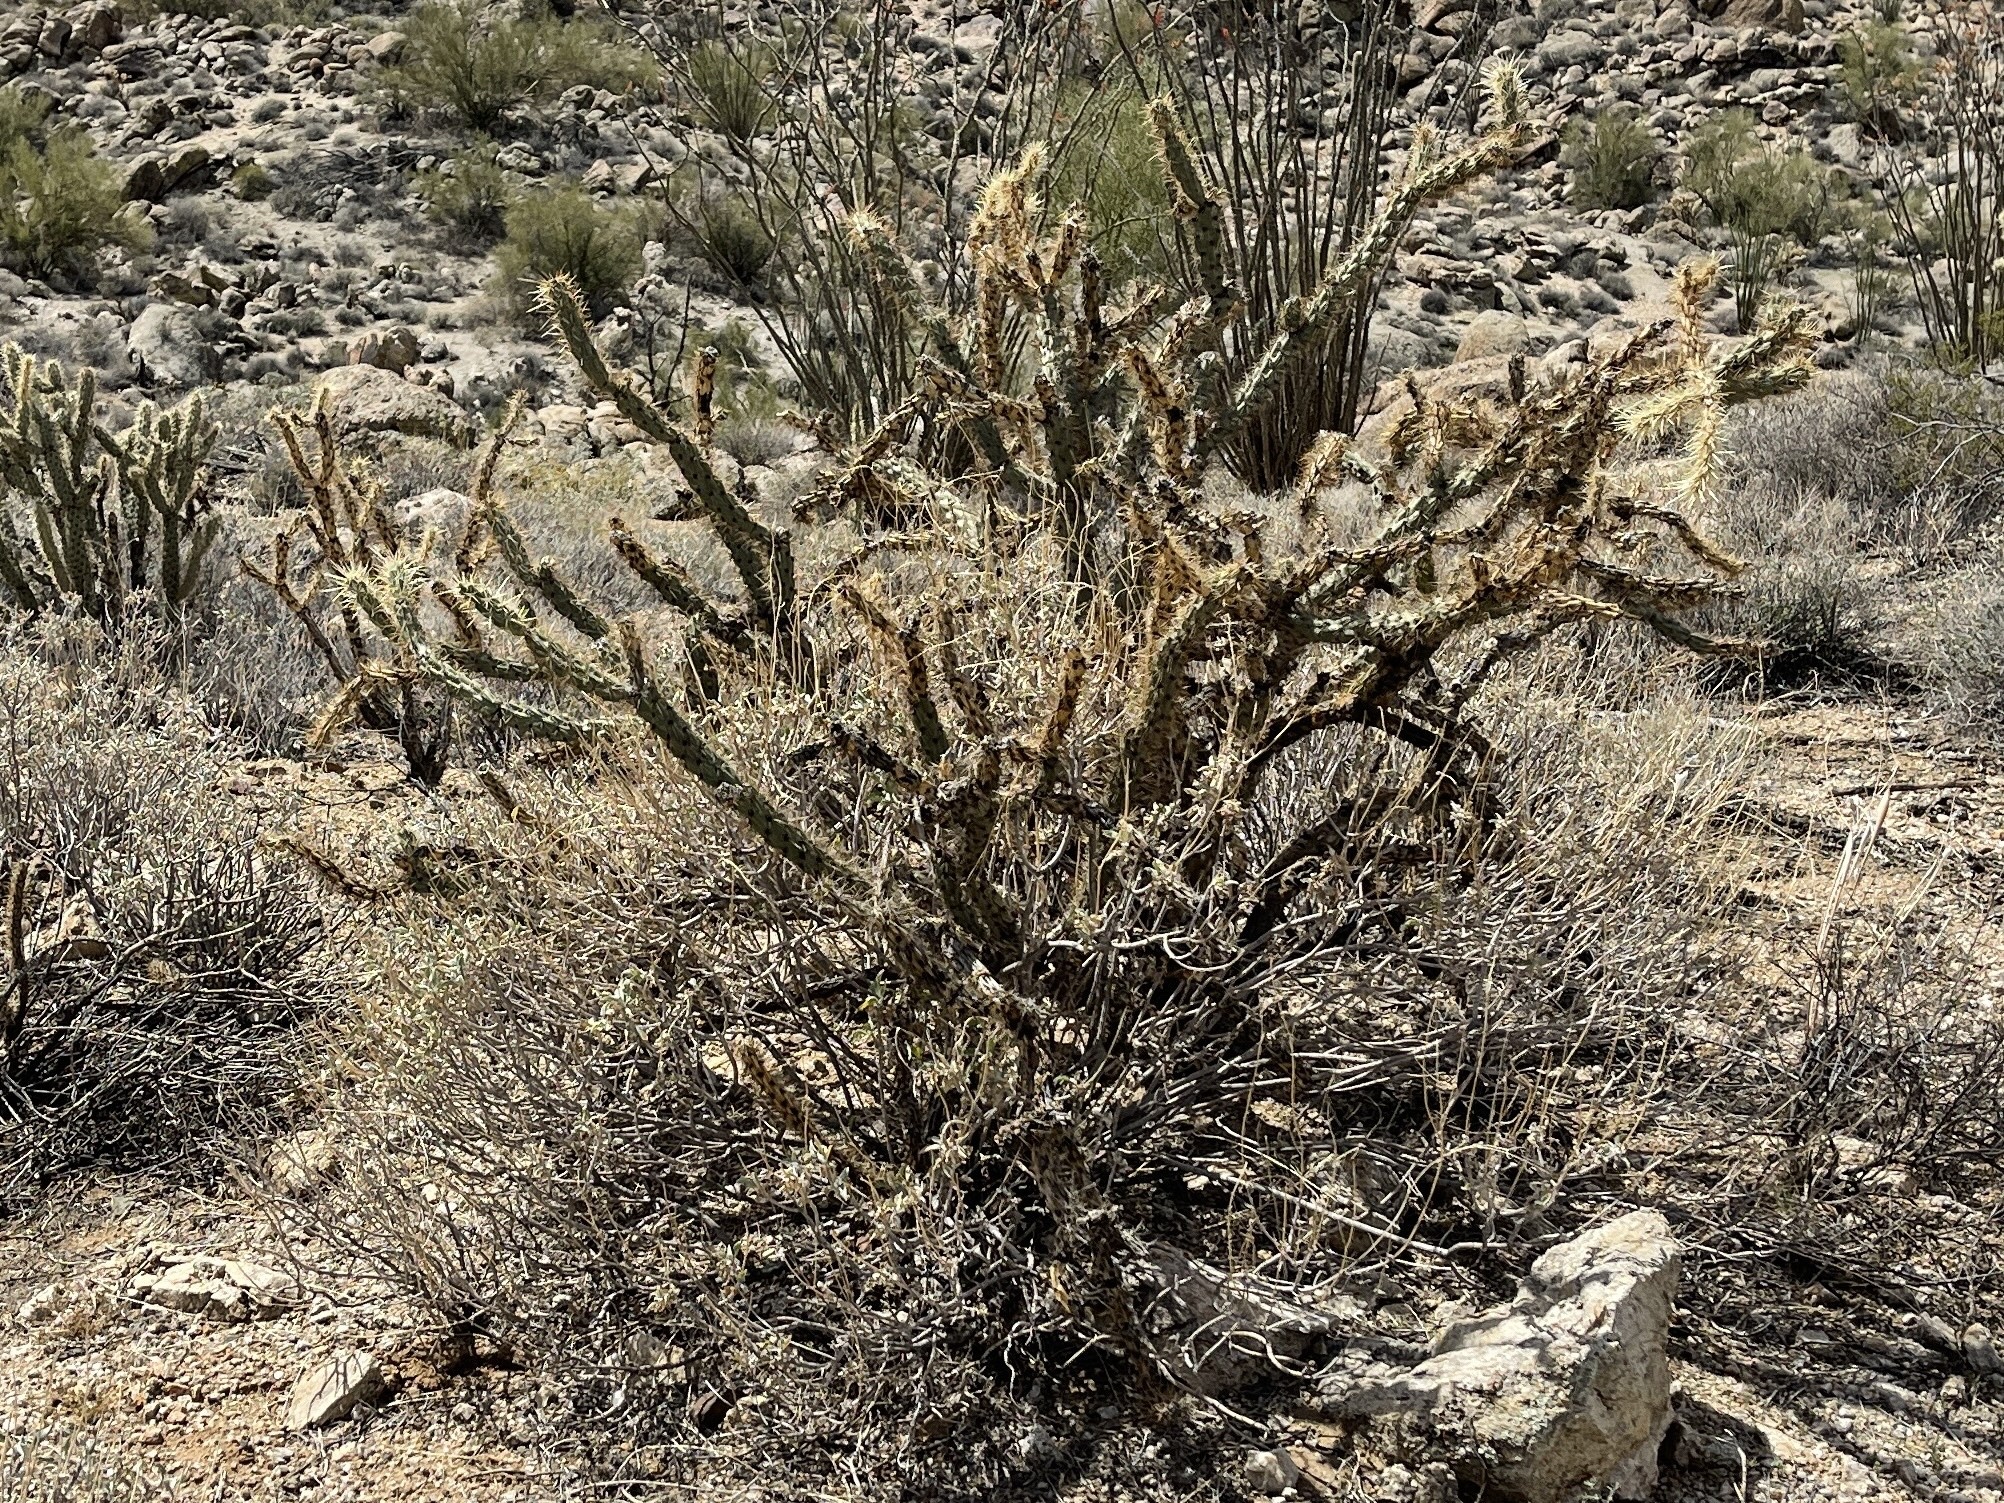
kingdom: Plantae
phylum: Tracheophyta
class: Magnoliopsida
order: Caryophyllales
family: Cactaceae
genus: Cylindropuntia
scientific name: Cylindropuntia acanthocarpa
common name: Buckhorn cholla
